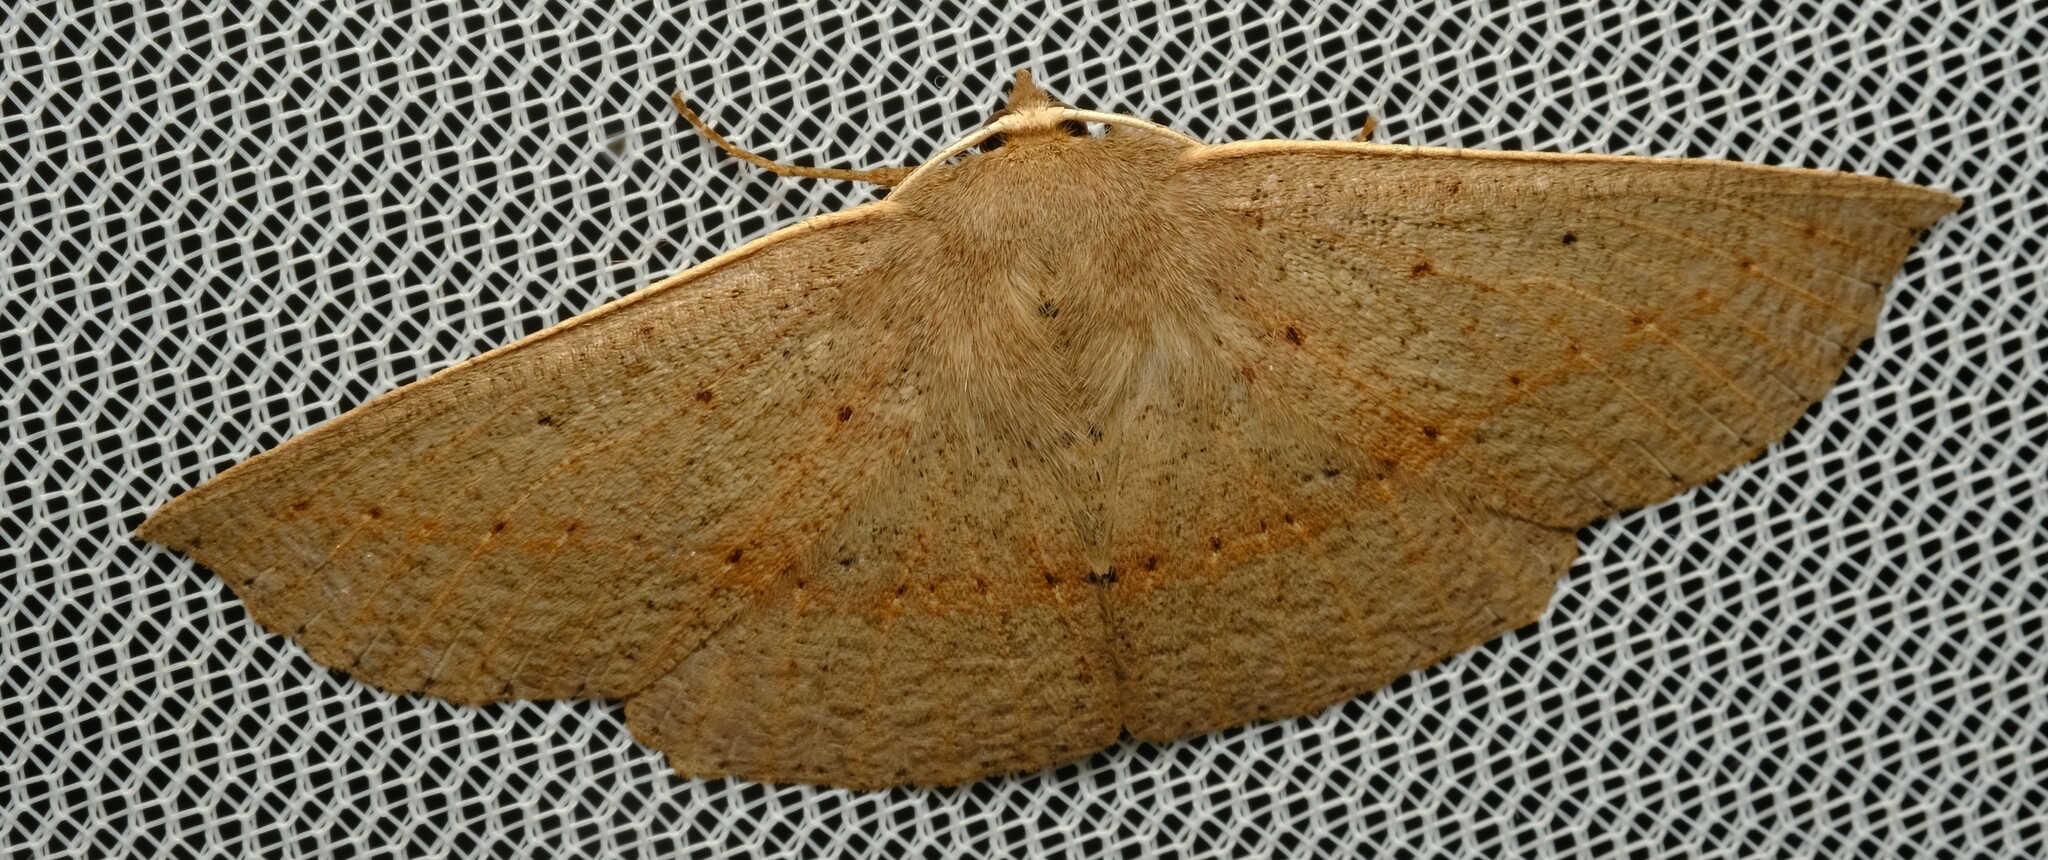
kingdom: Animalia
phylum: Arthropoda
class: Insecta
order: Lepidoptera
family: Geometridae
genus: Idiodes
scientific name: Idiodes siculoides
